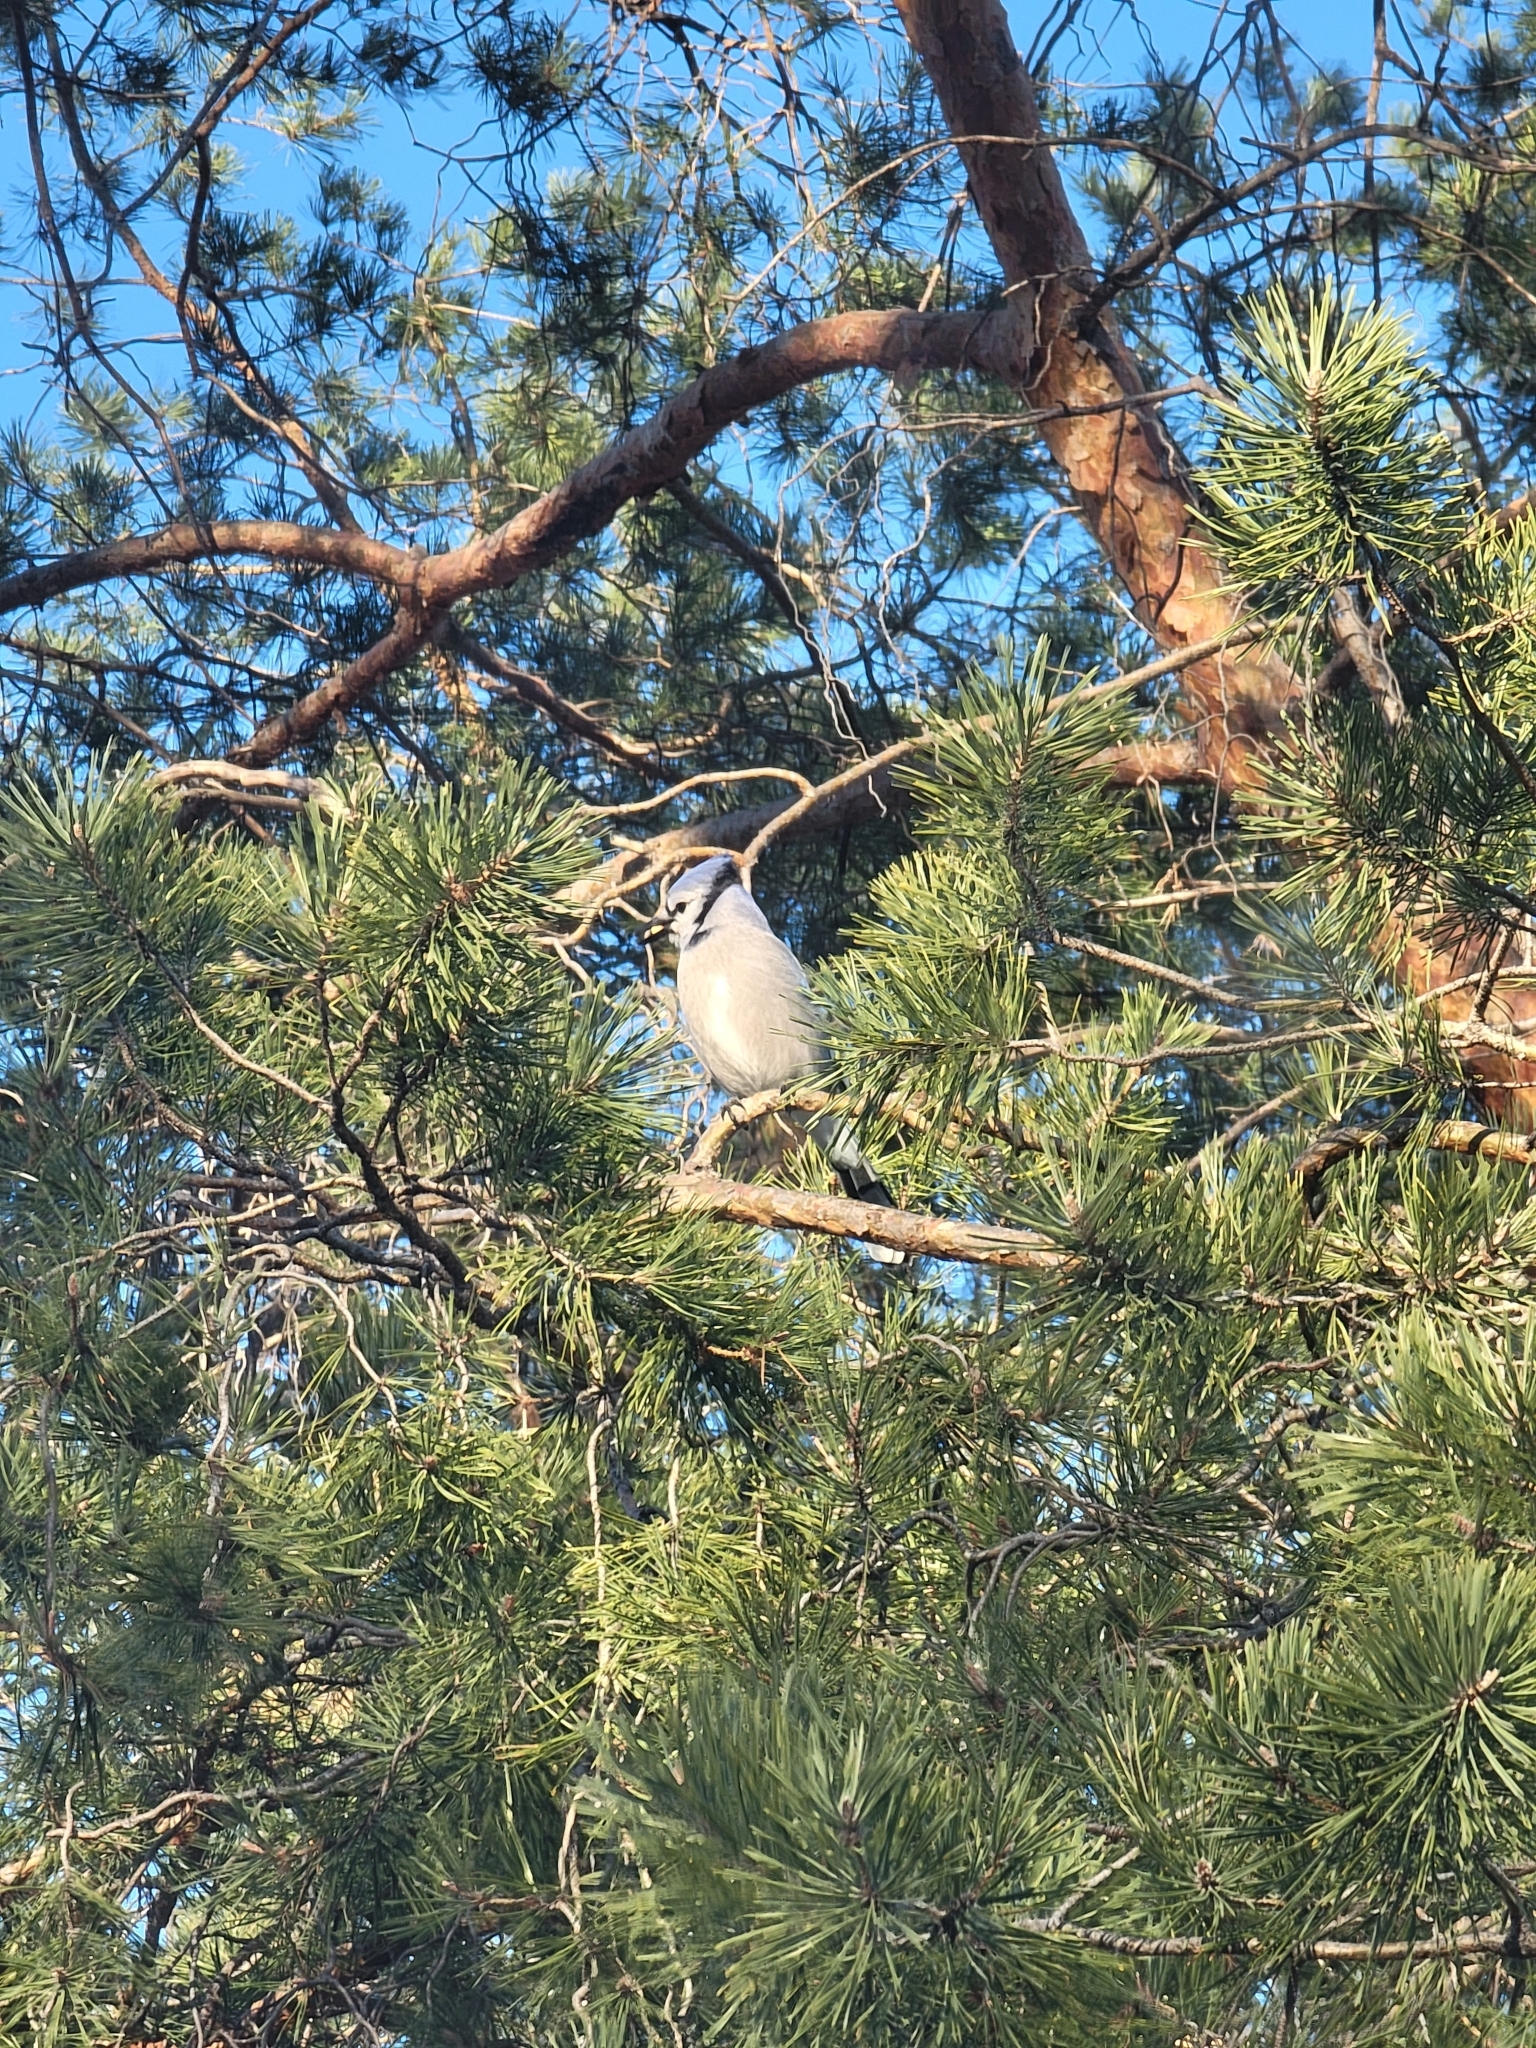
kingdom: Animalia
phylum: Chordata
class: Aves
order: Passeriformes
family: Corvidae
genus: Cyanocitta
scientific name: Cyanocitta cristata
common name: Blue jay
